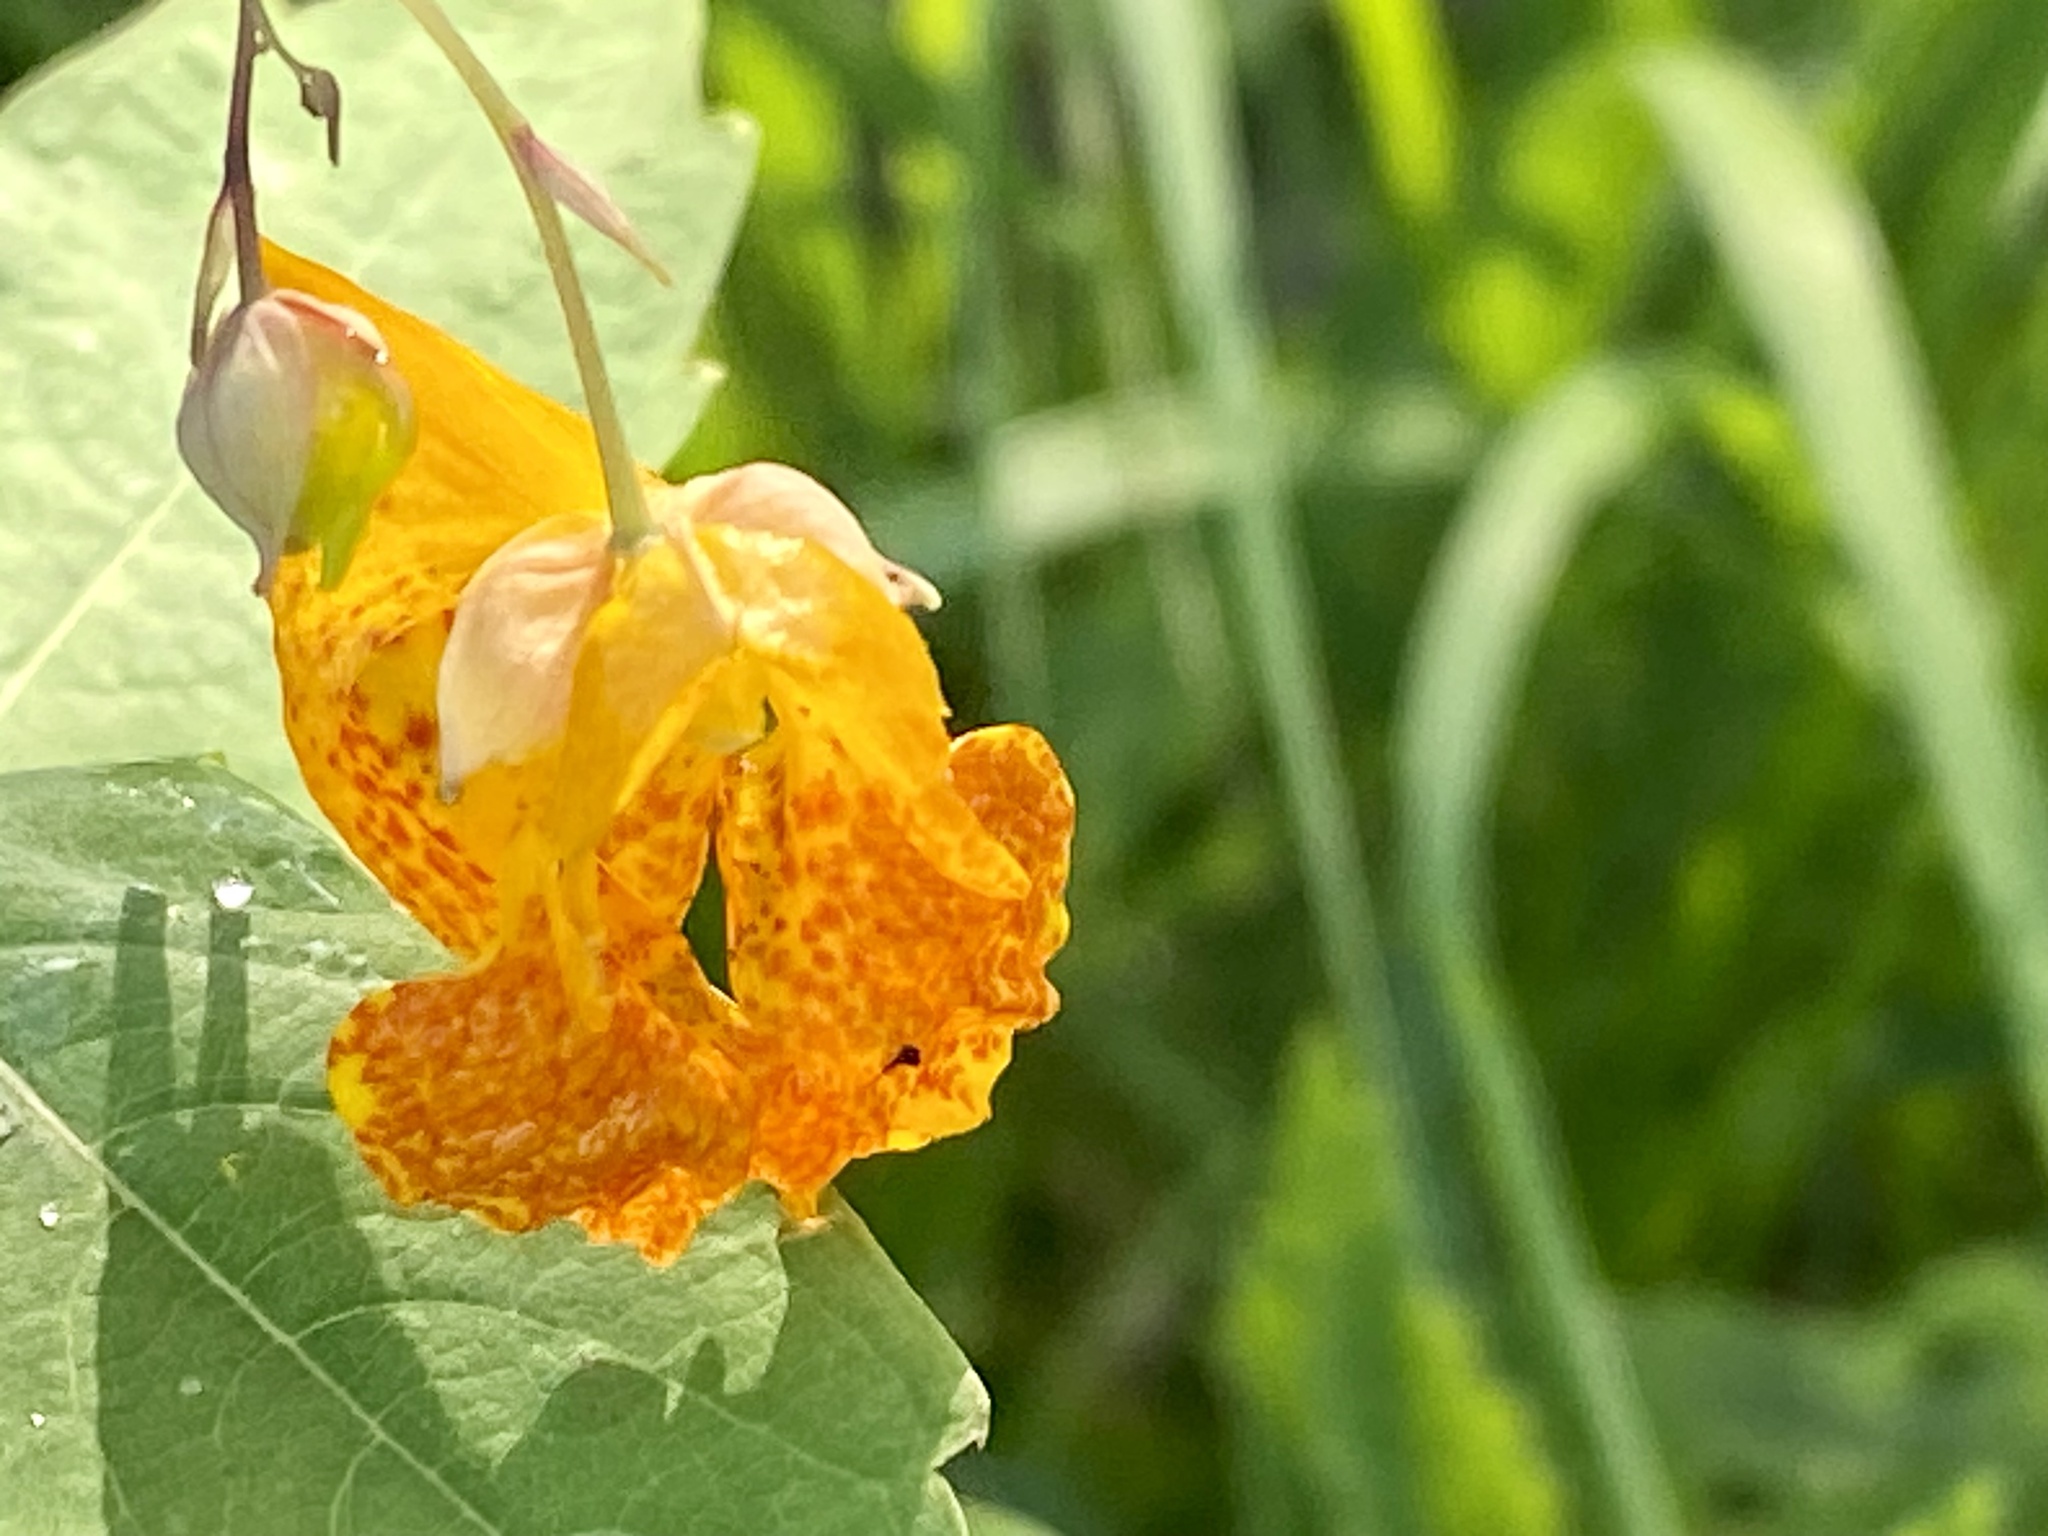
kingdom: Plantae
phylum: Tracheophyta
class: Magnoliopsida
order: Ericales
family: Balsaminaceae
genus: Impatiens
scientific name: Impatiens capensis
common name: Orange balsam
